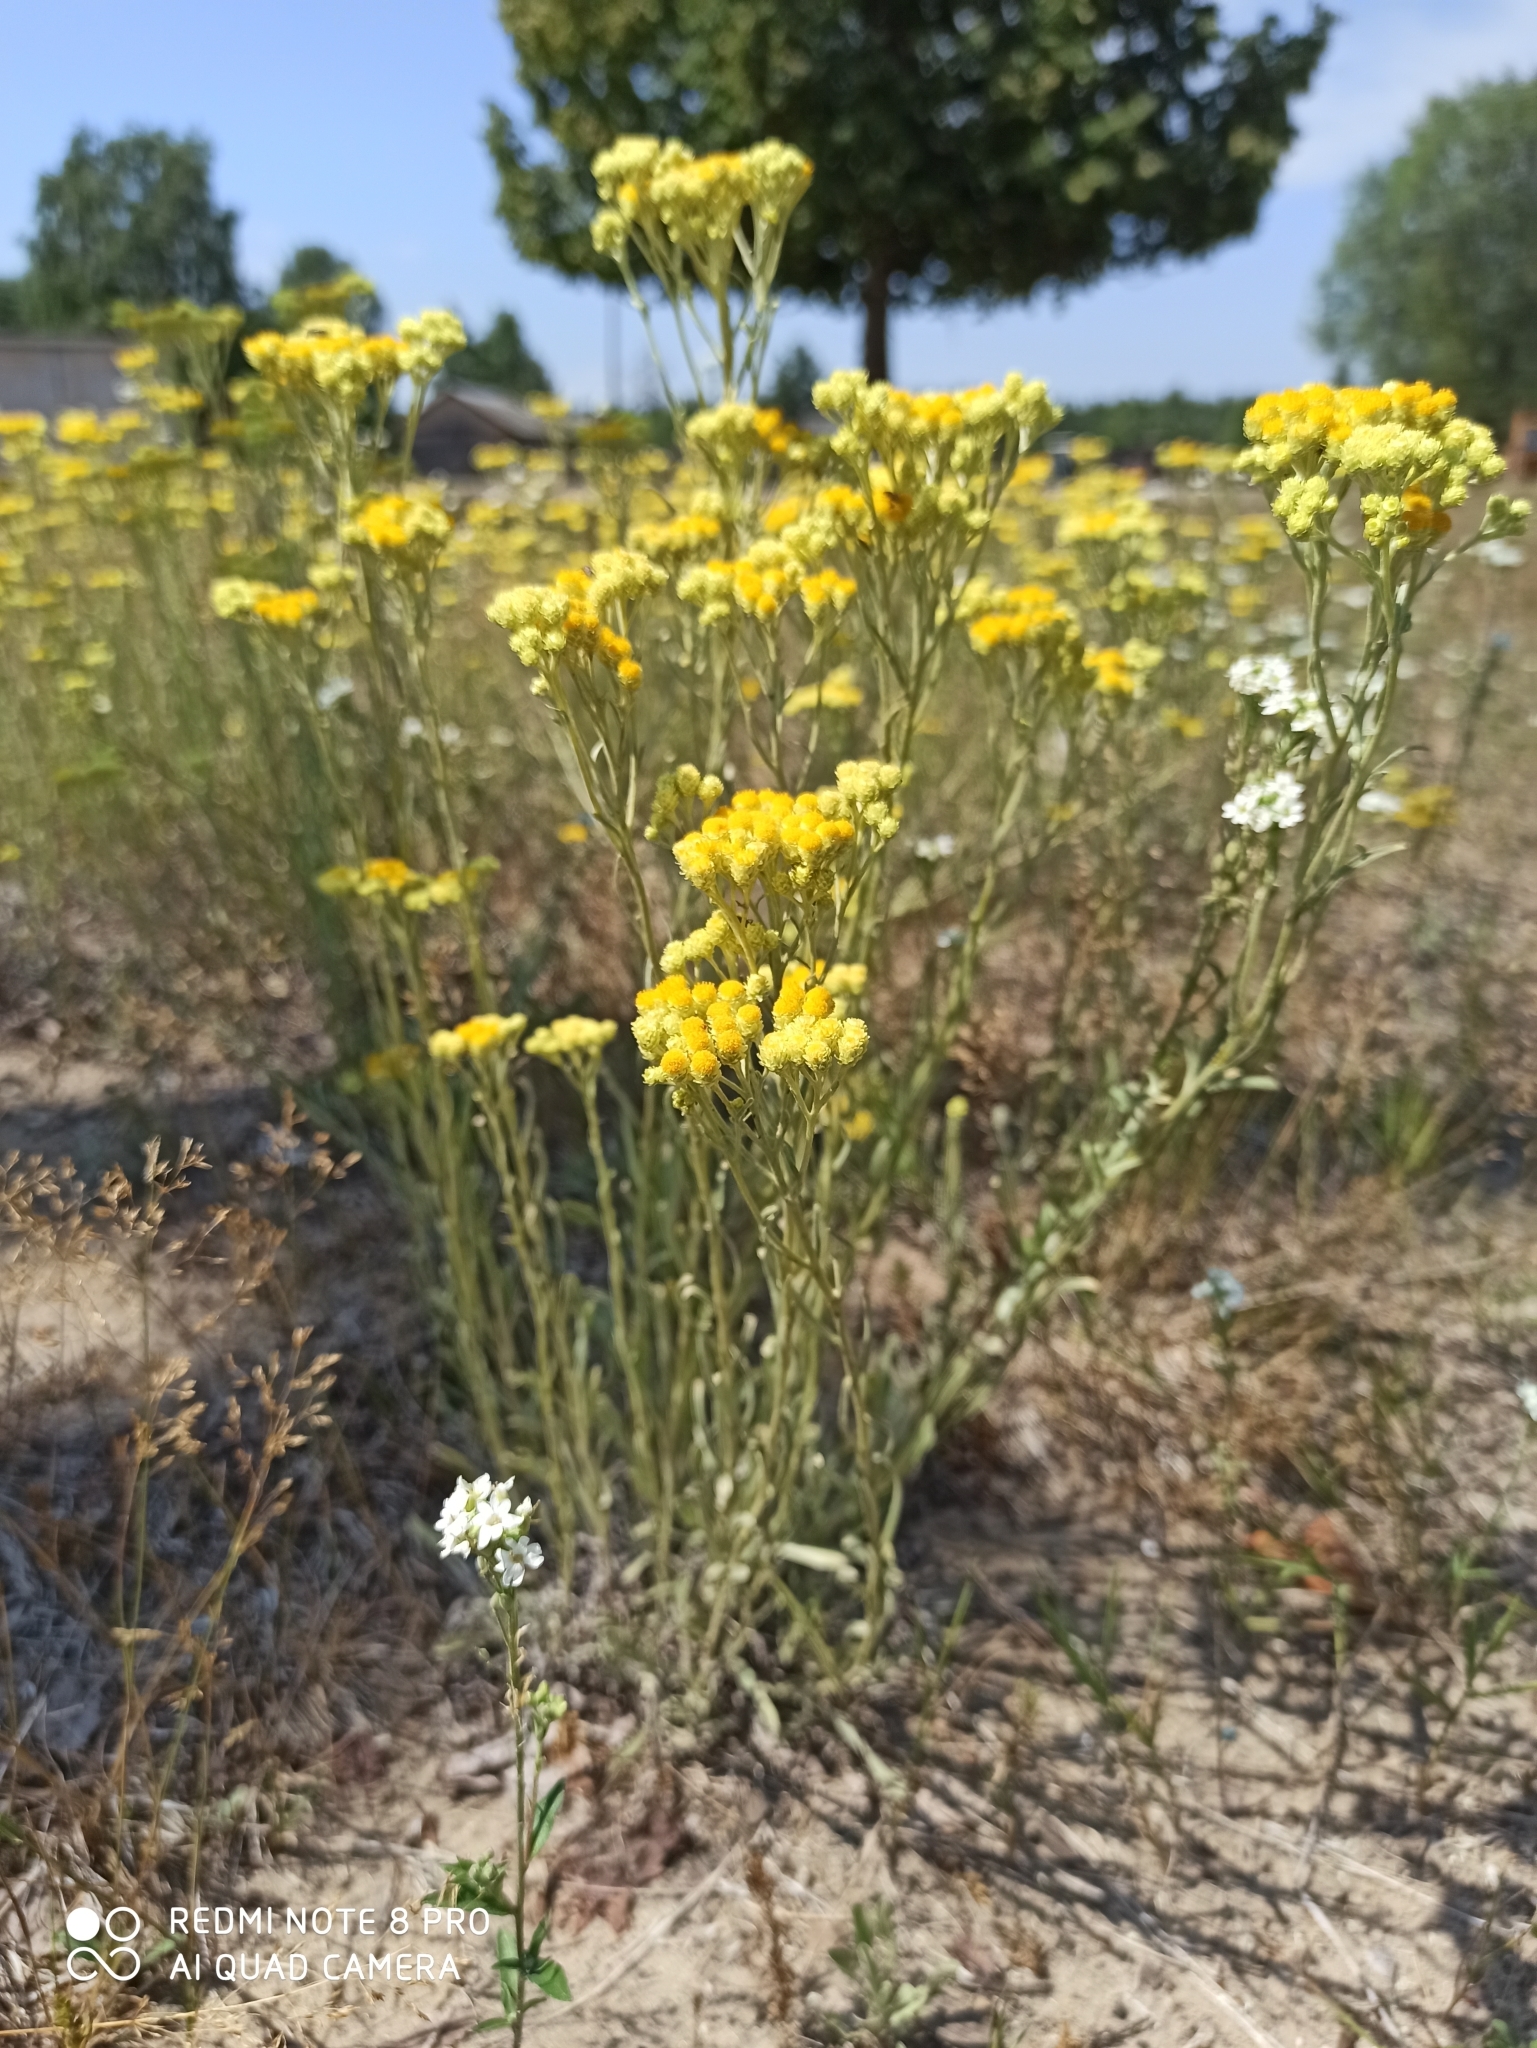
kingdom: Plantae
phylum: Tracheophyta
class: Magnoliopsida
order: Asterales
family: Asteraceae
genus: Helichrysum
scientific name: Helichrysum arenarium
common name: Strawflower
